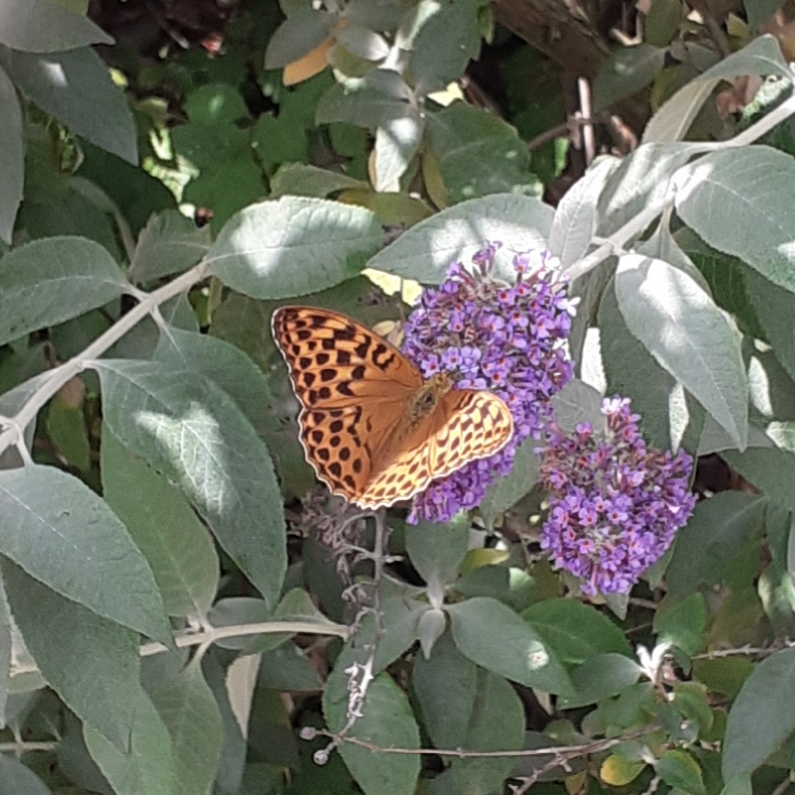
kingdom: Animalia
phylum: Arthropoda
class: Insecta
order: Lepidoptera
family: Nymphalidae
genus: Argynnis
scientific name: Argynnis paphia
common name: Silver-washed fritillary
